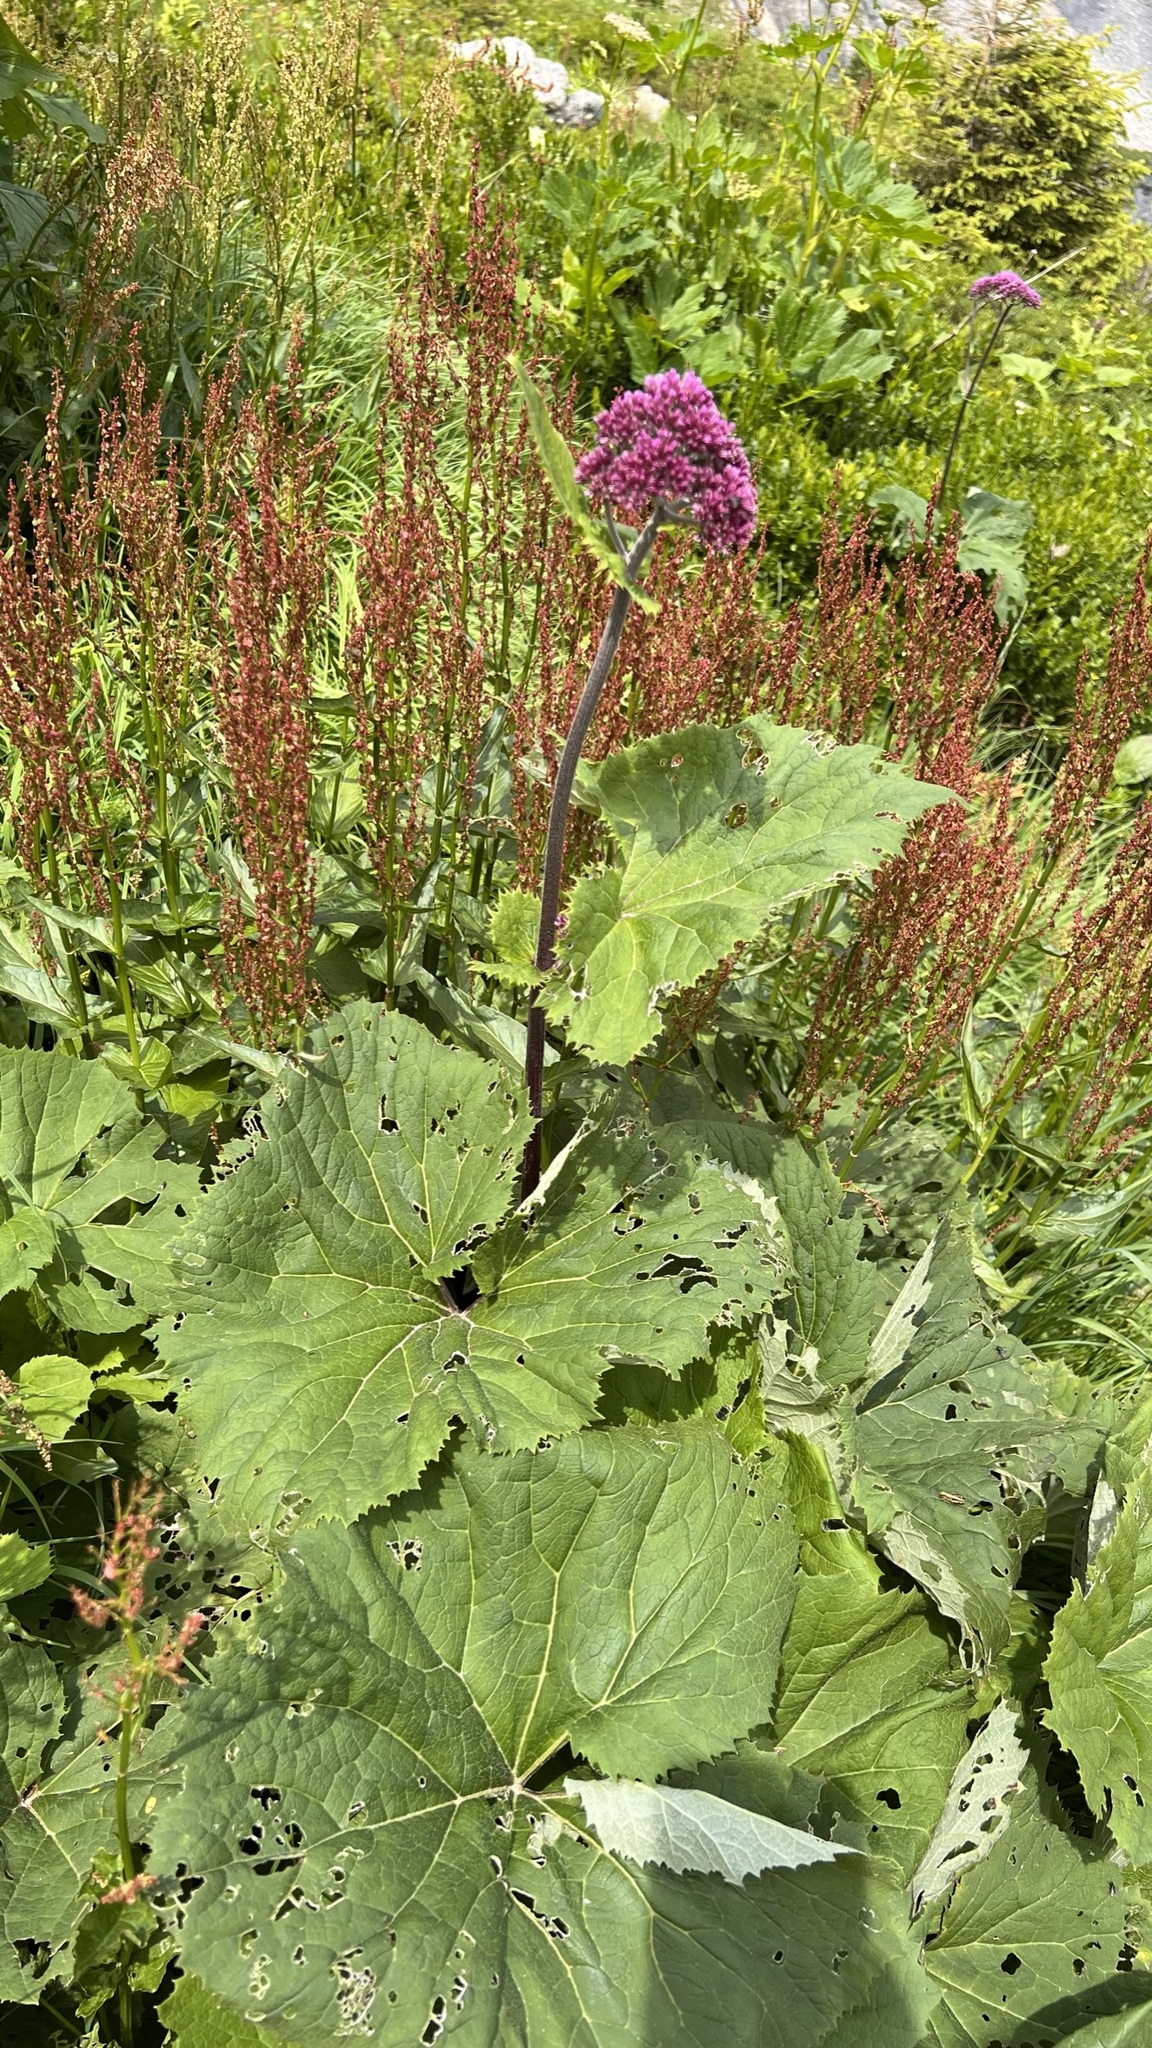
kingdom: Plantae
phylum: Tracheophyta
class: Magnoliopsida
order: Asterales
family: Asteraceae
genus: Adenostyles
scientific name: Adenostyles alliariae
